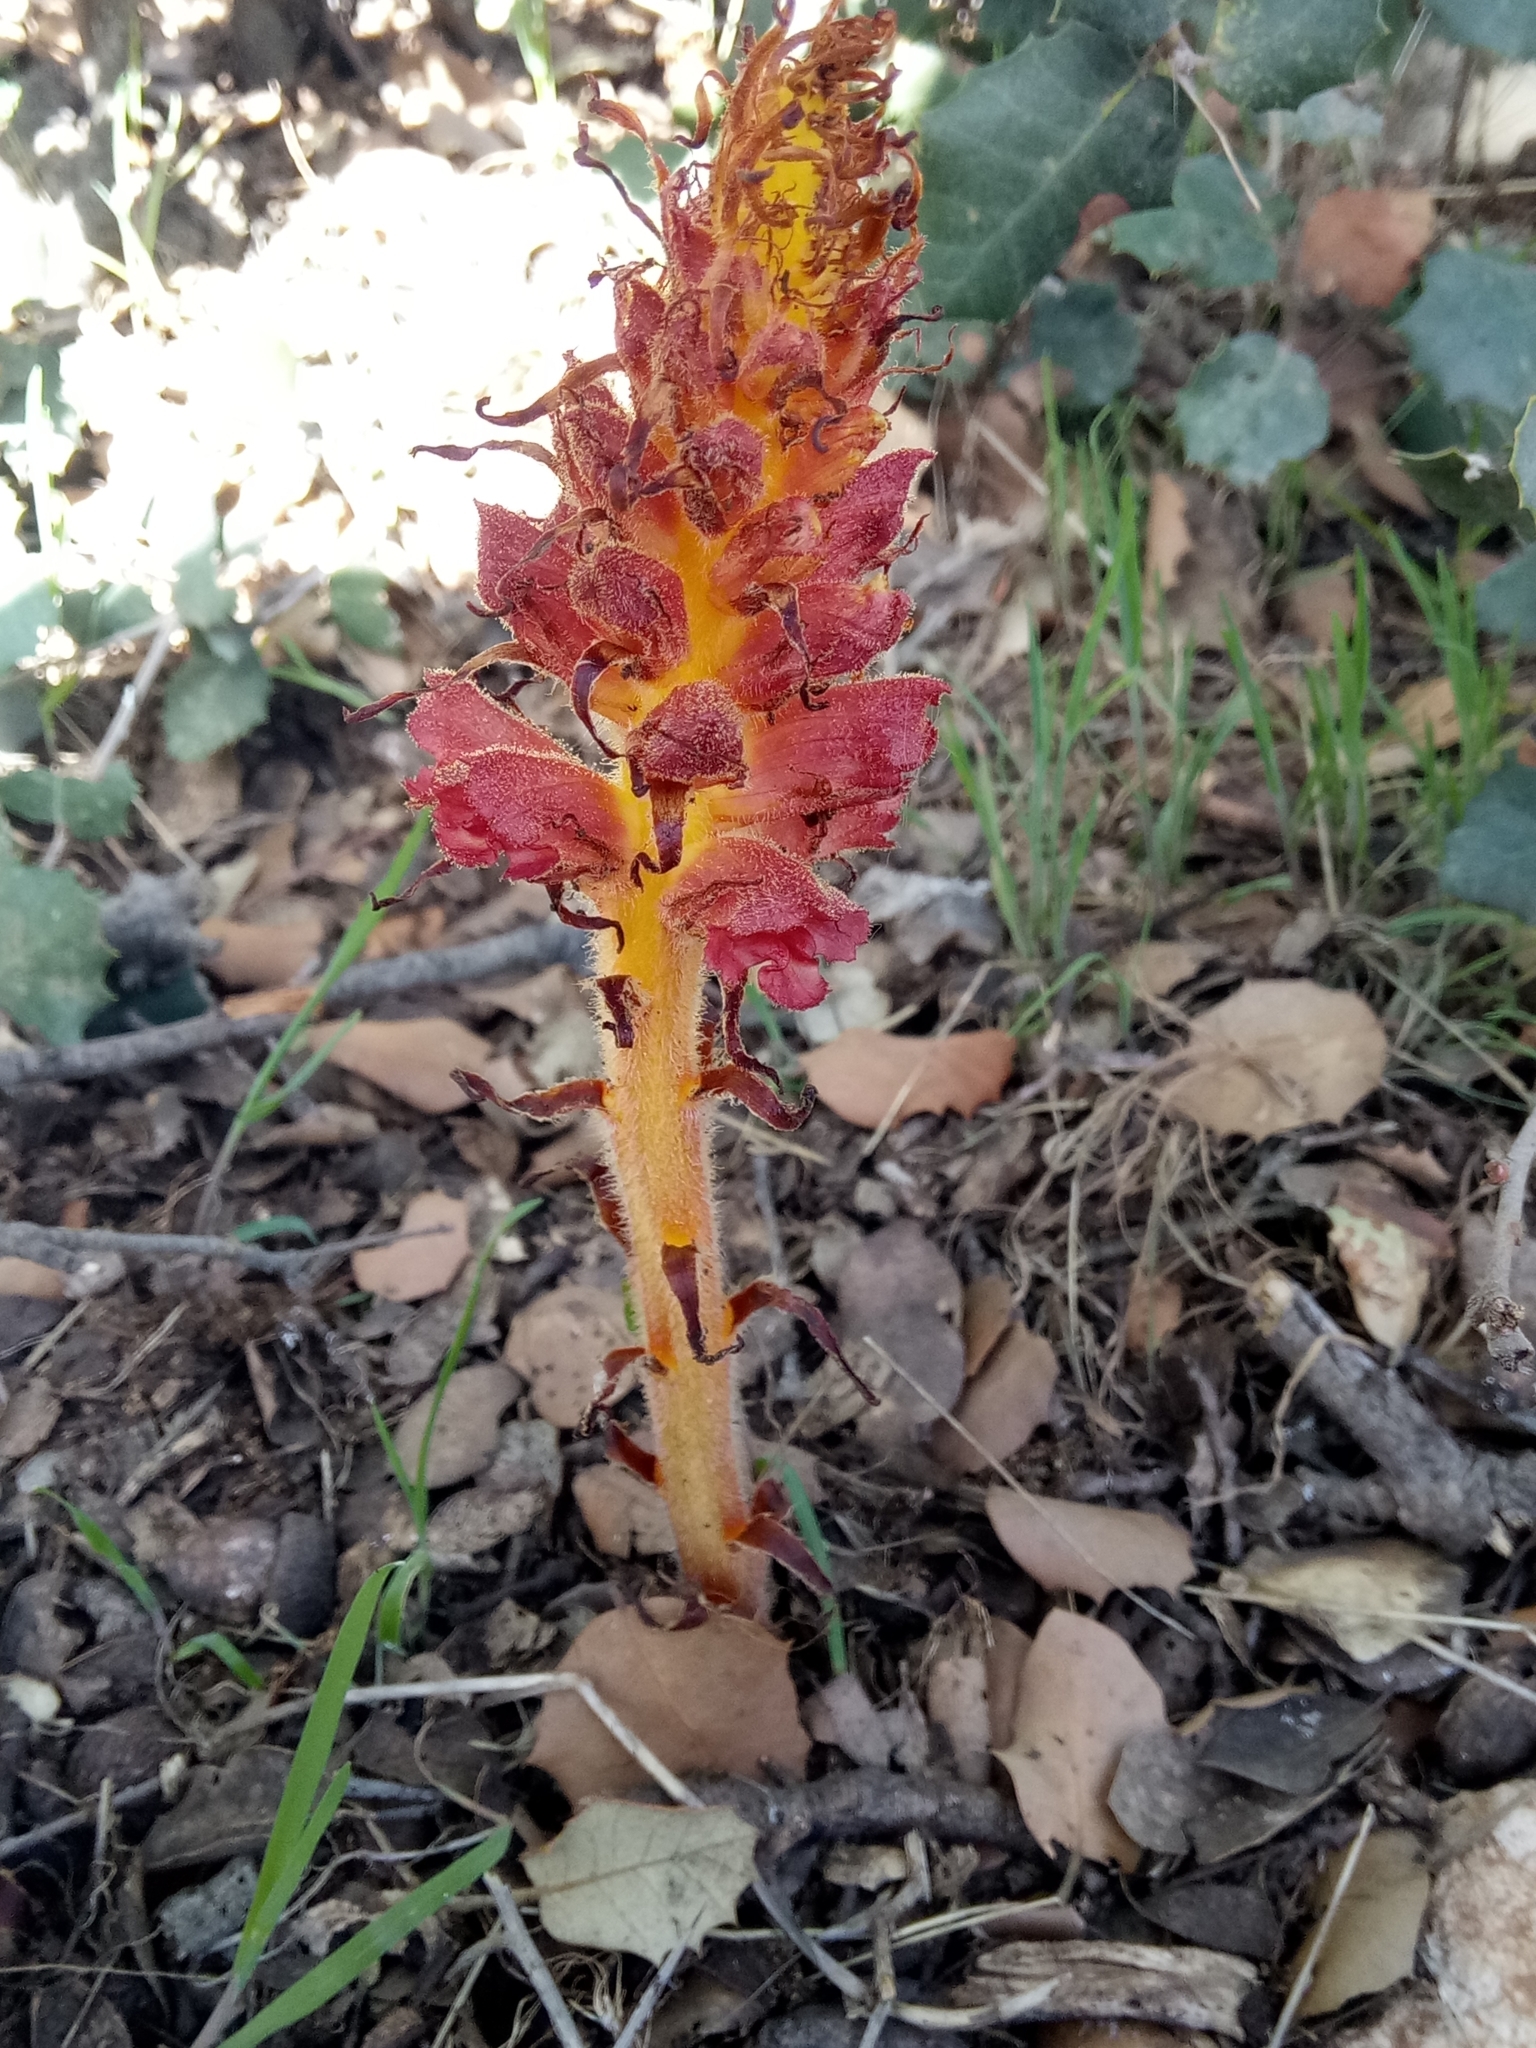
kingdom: Plantae
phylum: Tracheophyta
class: Magnoliopsida
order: Lamiales
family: Orobanchaceae
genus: Orobanche
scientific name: Orobanche variegata
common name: Variegated broomrape
